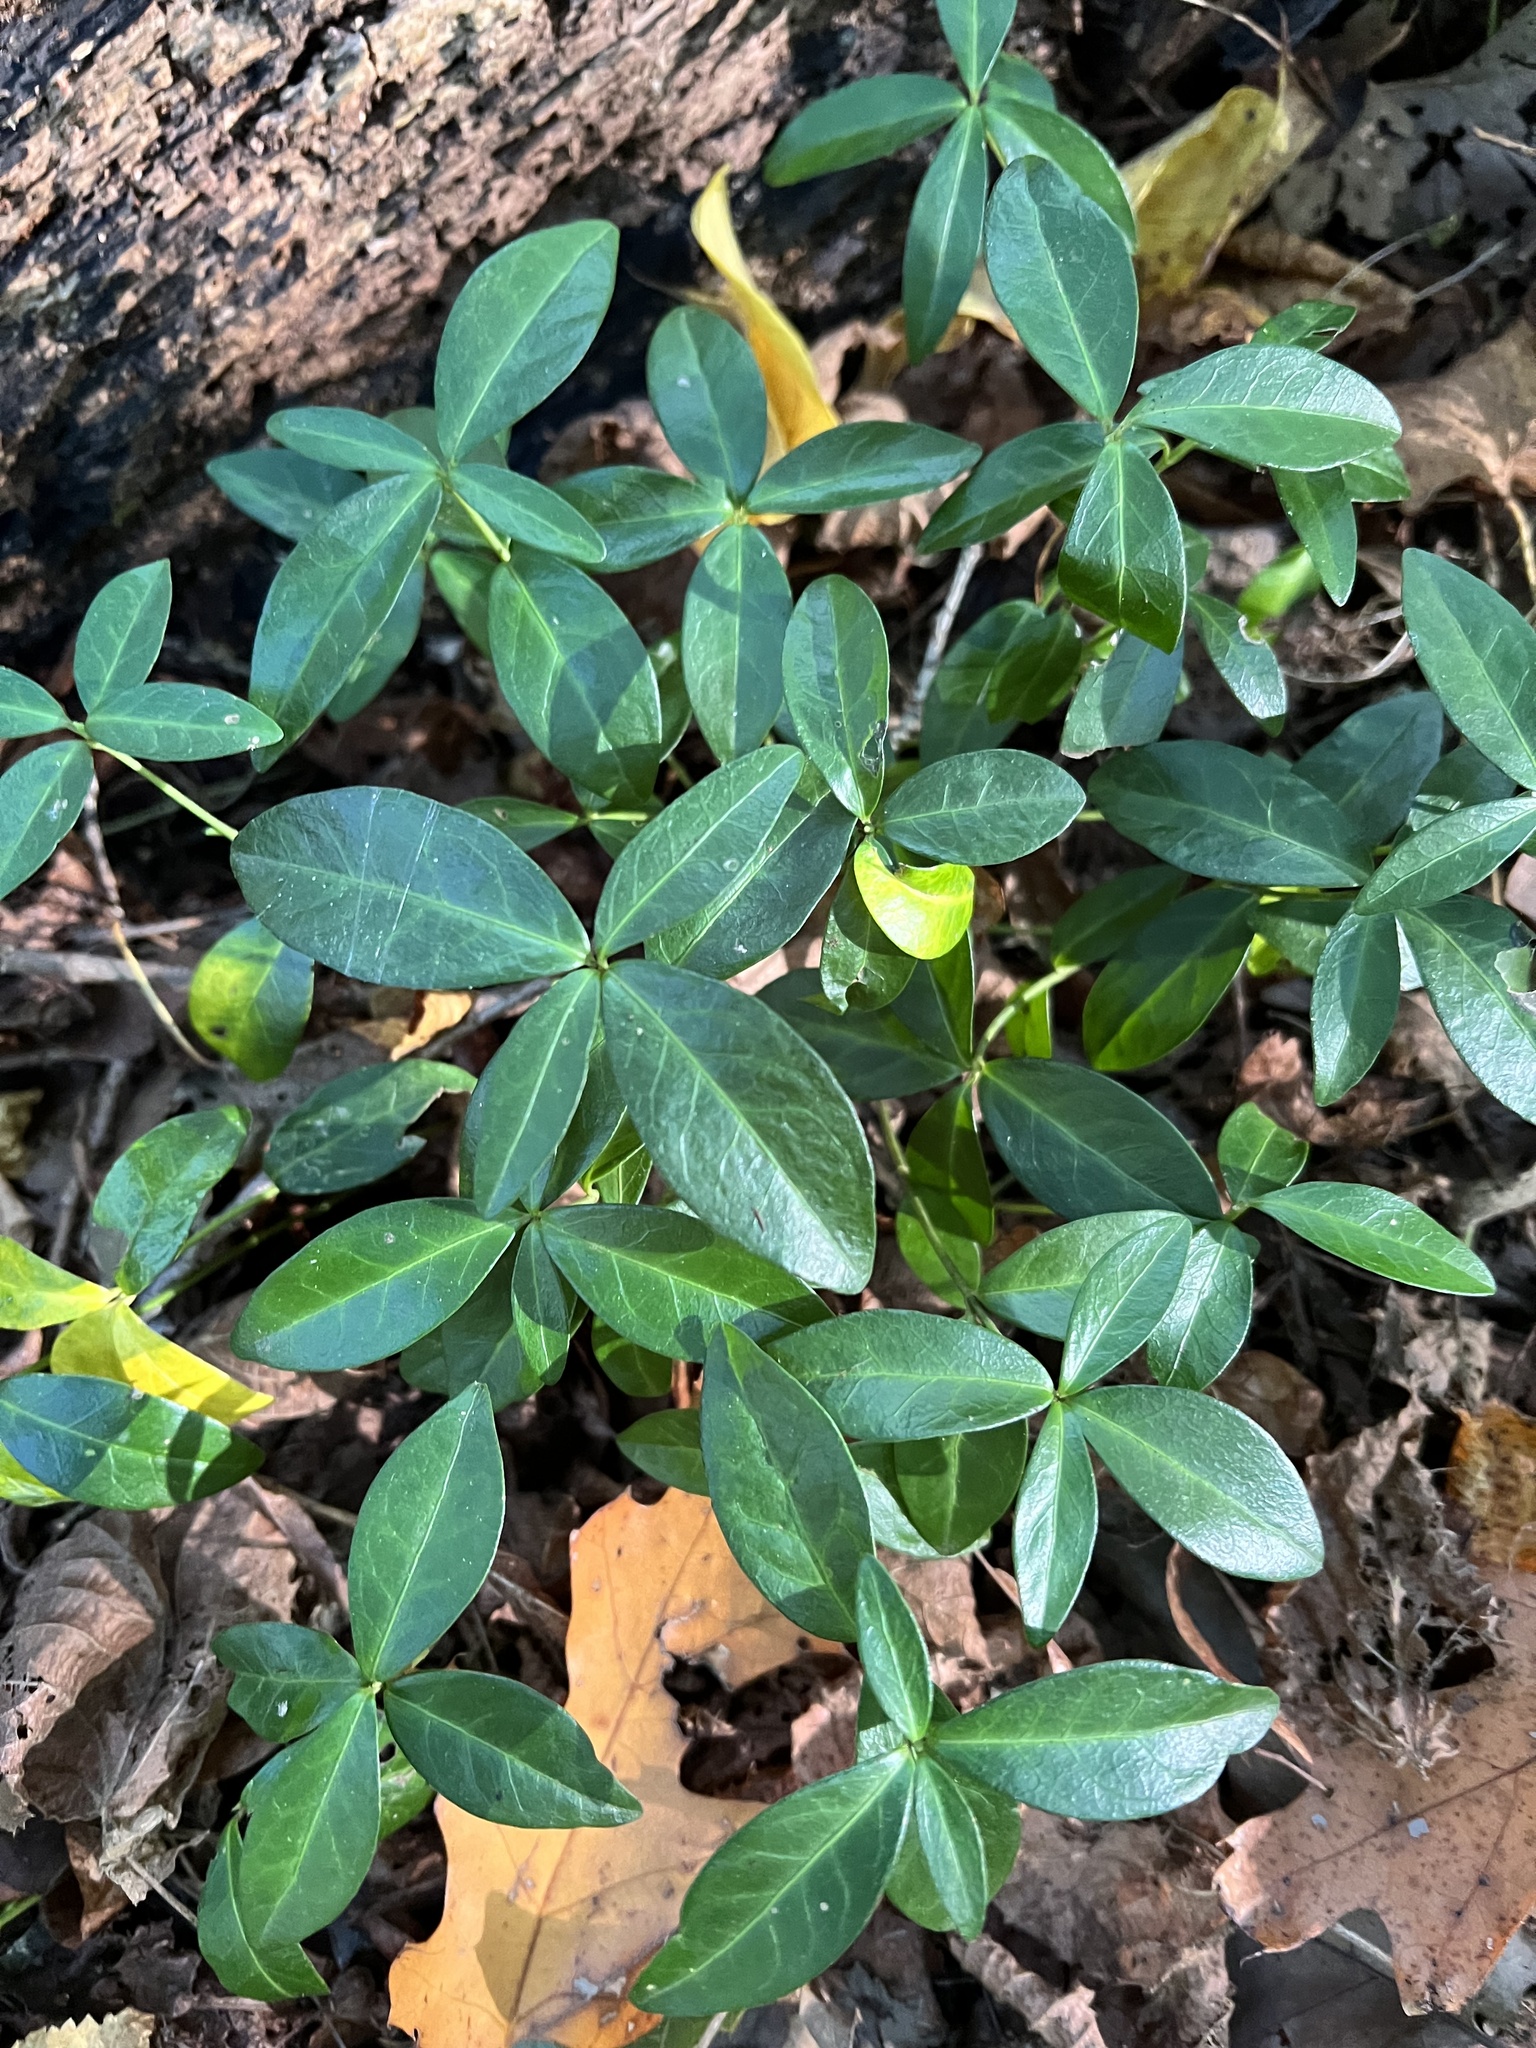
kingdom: Plantae
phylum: Tracheophyta
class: Magnoliopsida
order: Gentianales
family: Apocynaceae
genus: Vinca
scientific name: Vinca minor
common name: Lesser periwinkle
